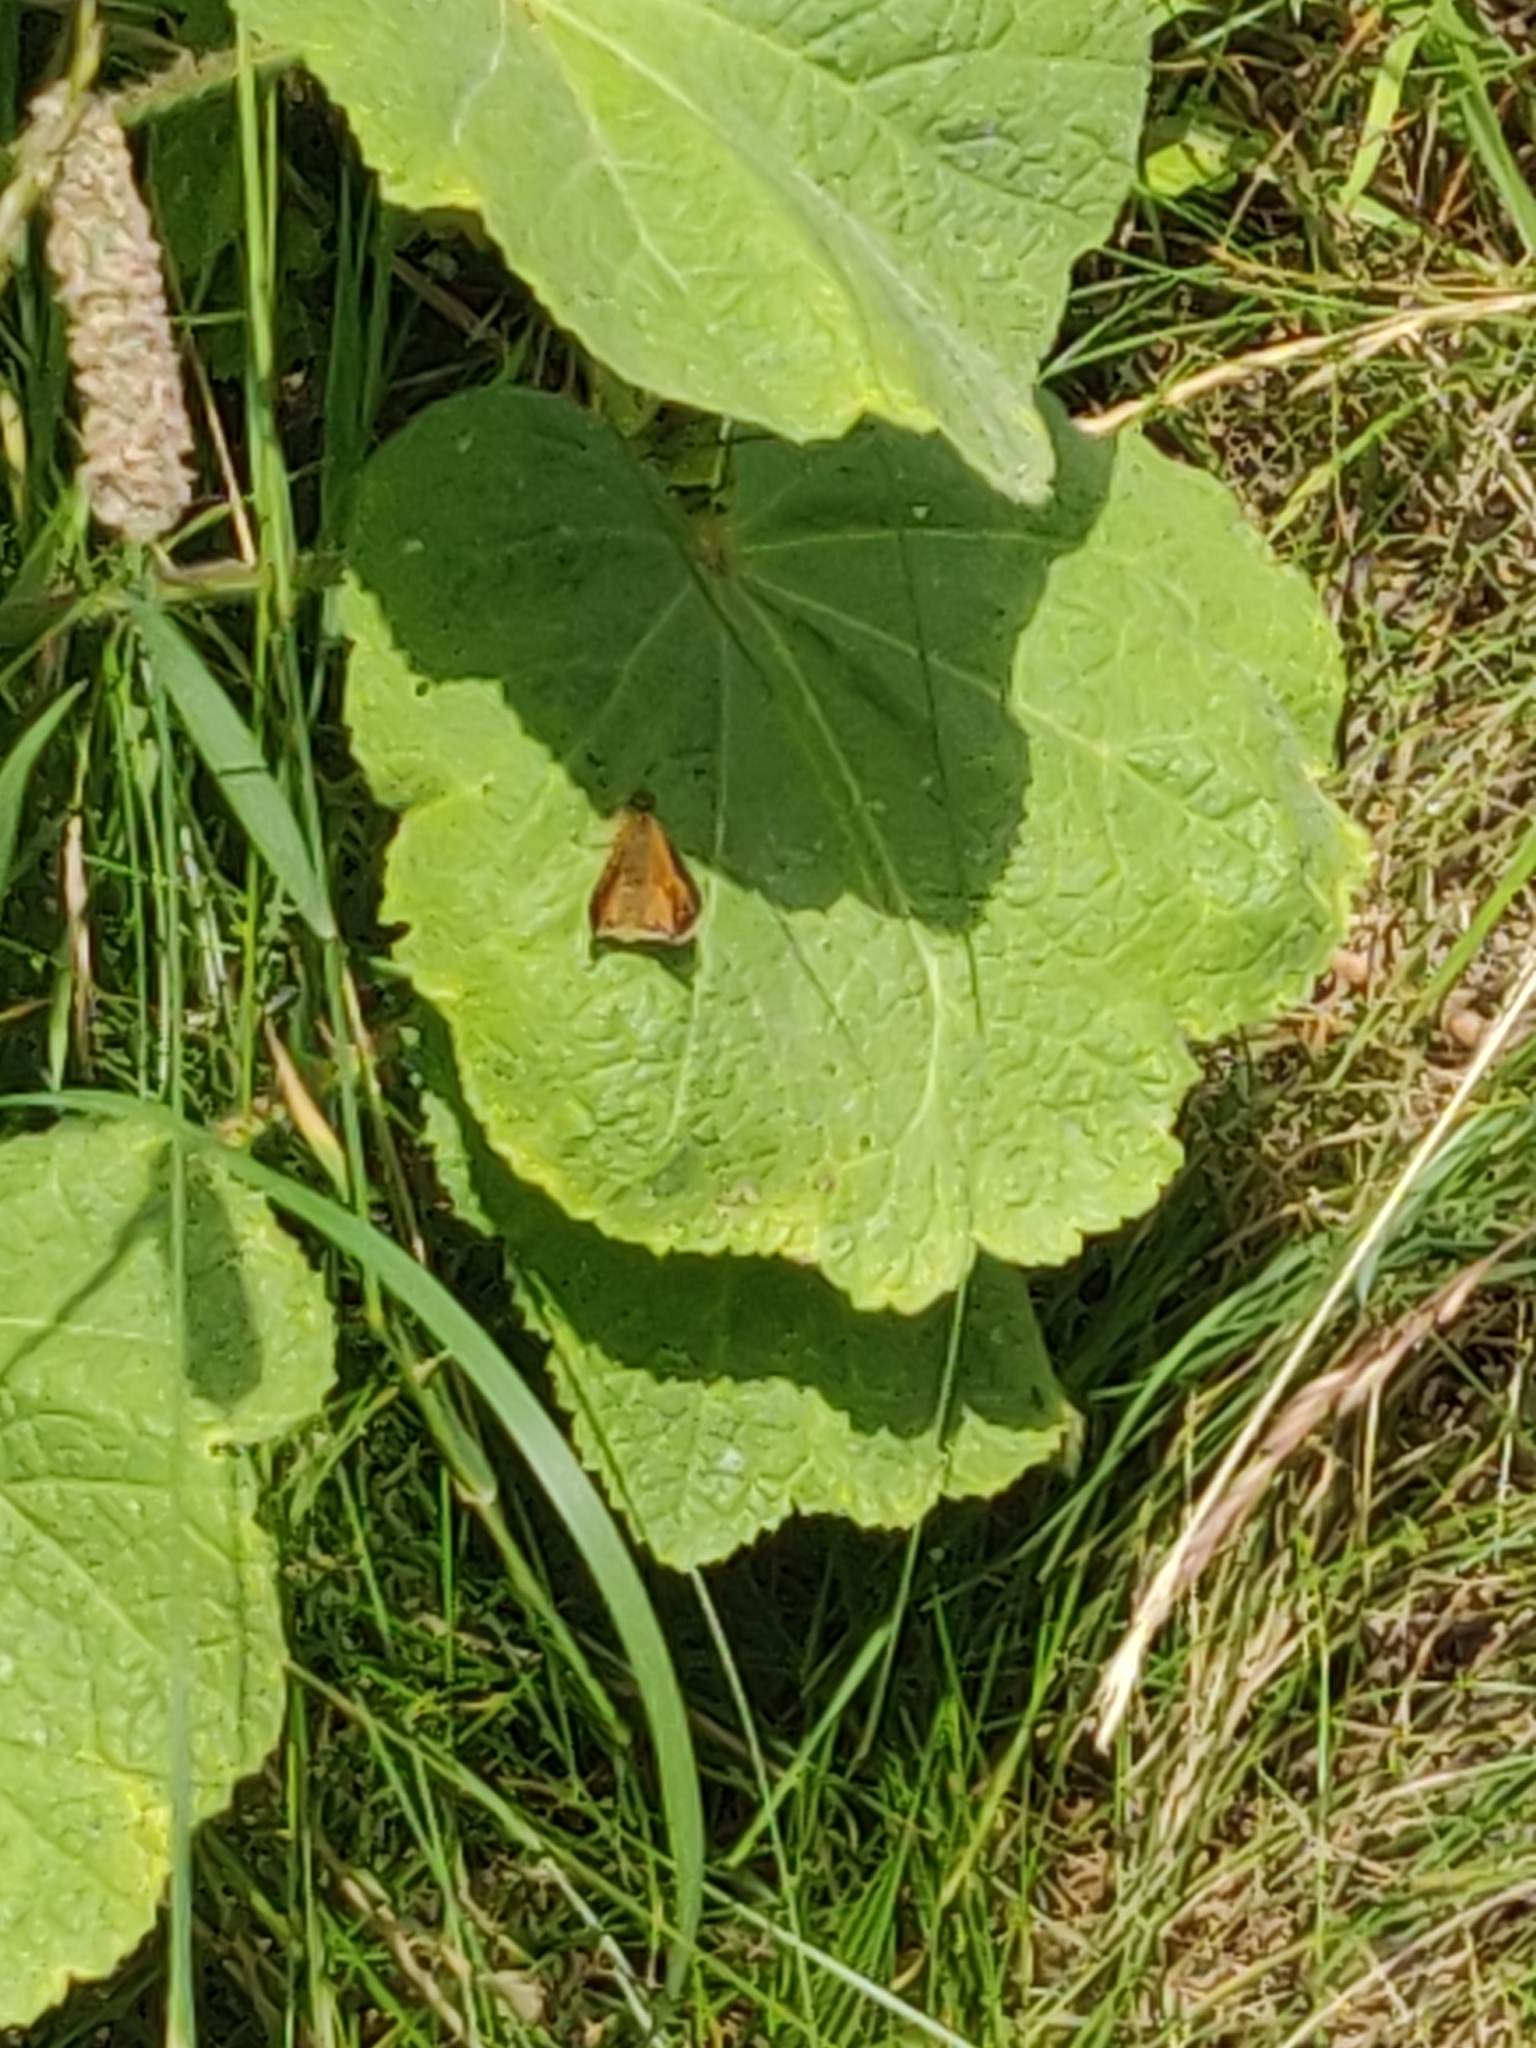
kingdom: Animalia
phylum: Arthropoda
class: Insecta
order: Lepidoptera
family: Hesperiidae
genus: Ochlodes
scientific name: Ochlodes venata
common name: Large skipper
